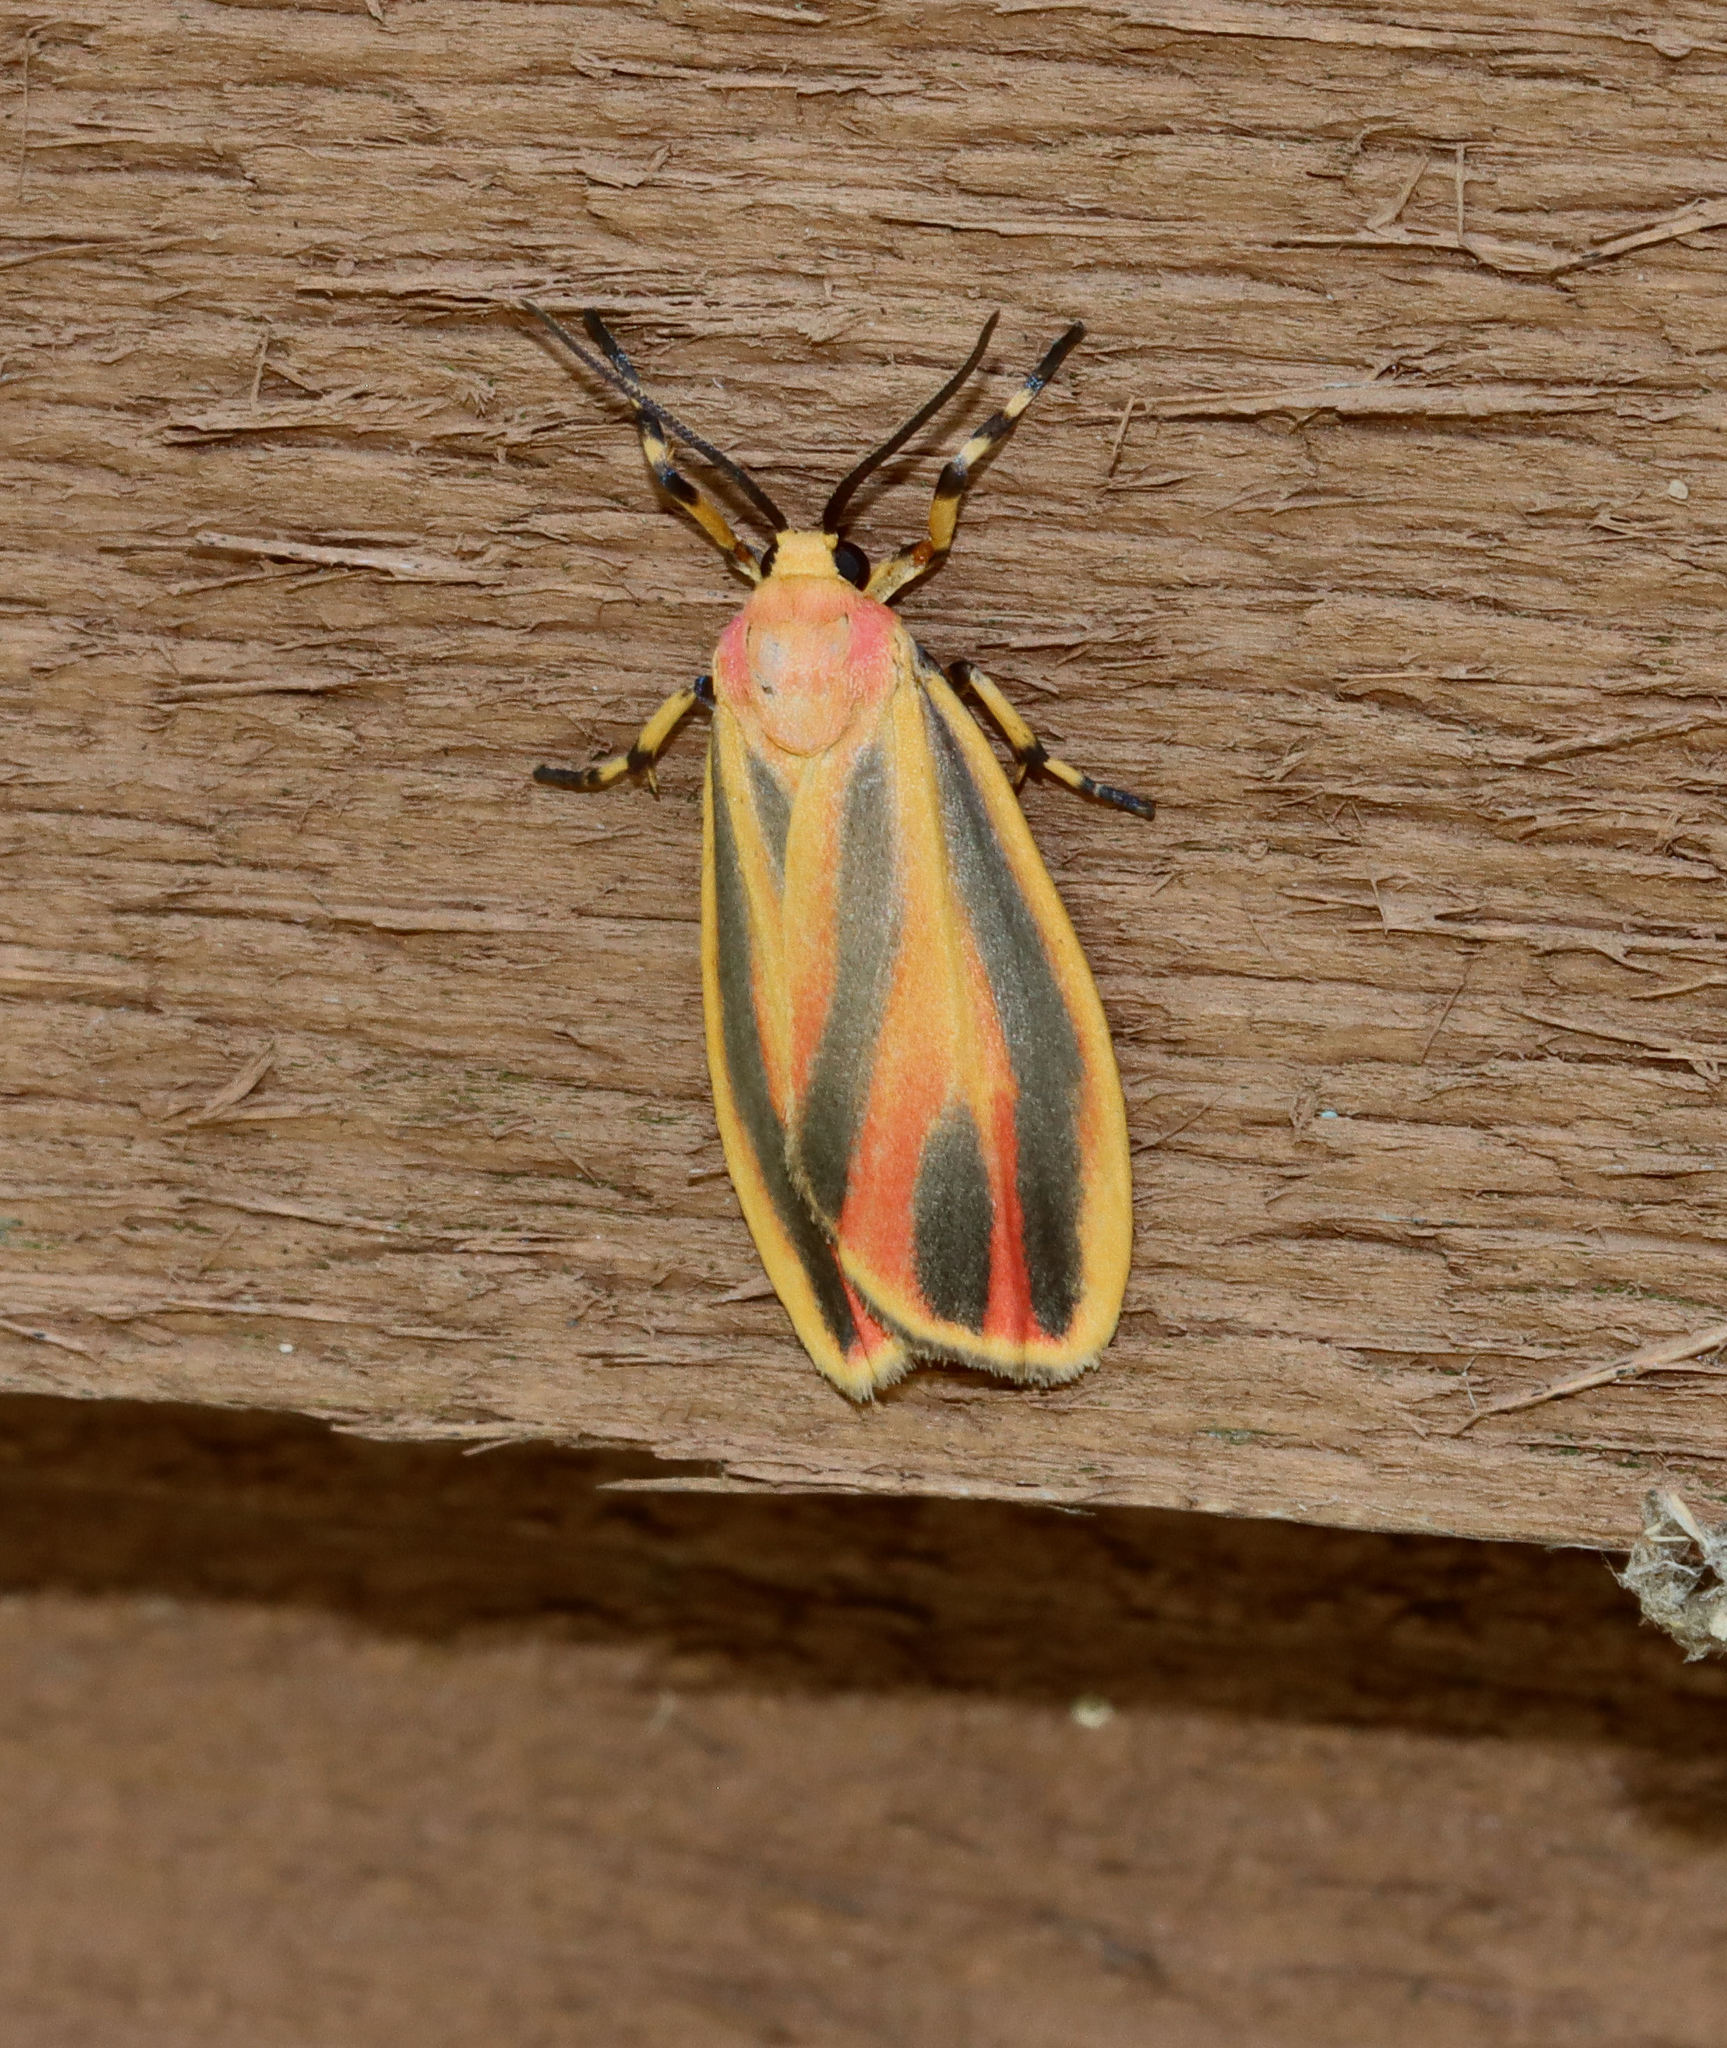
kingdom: Animalia
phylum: Arthropoda
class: Insecta
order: Lepidoptera
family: Erebidae
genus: Hypoprepia
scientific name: Hypoprepia fucosa
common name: Painted lichen moth
